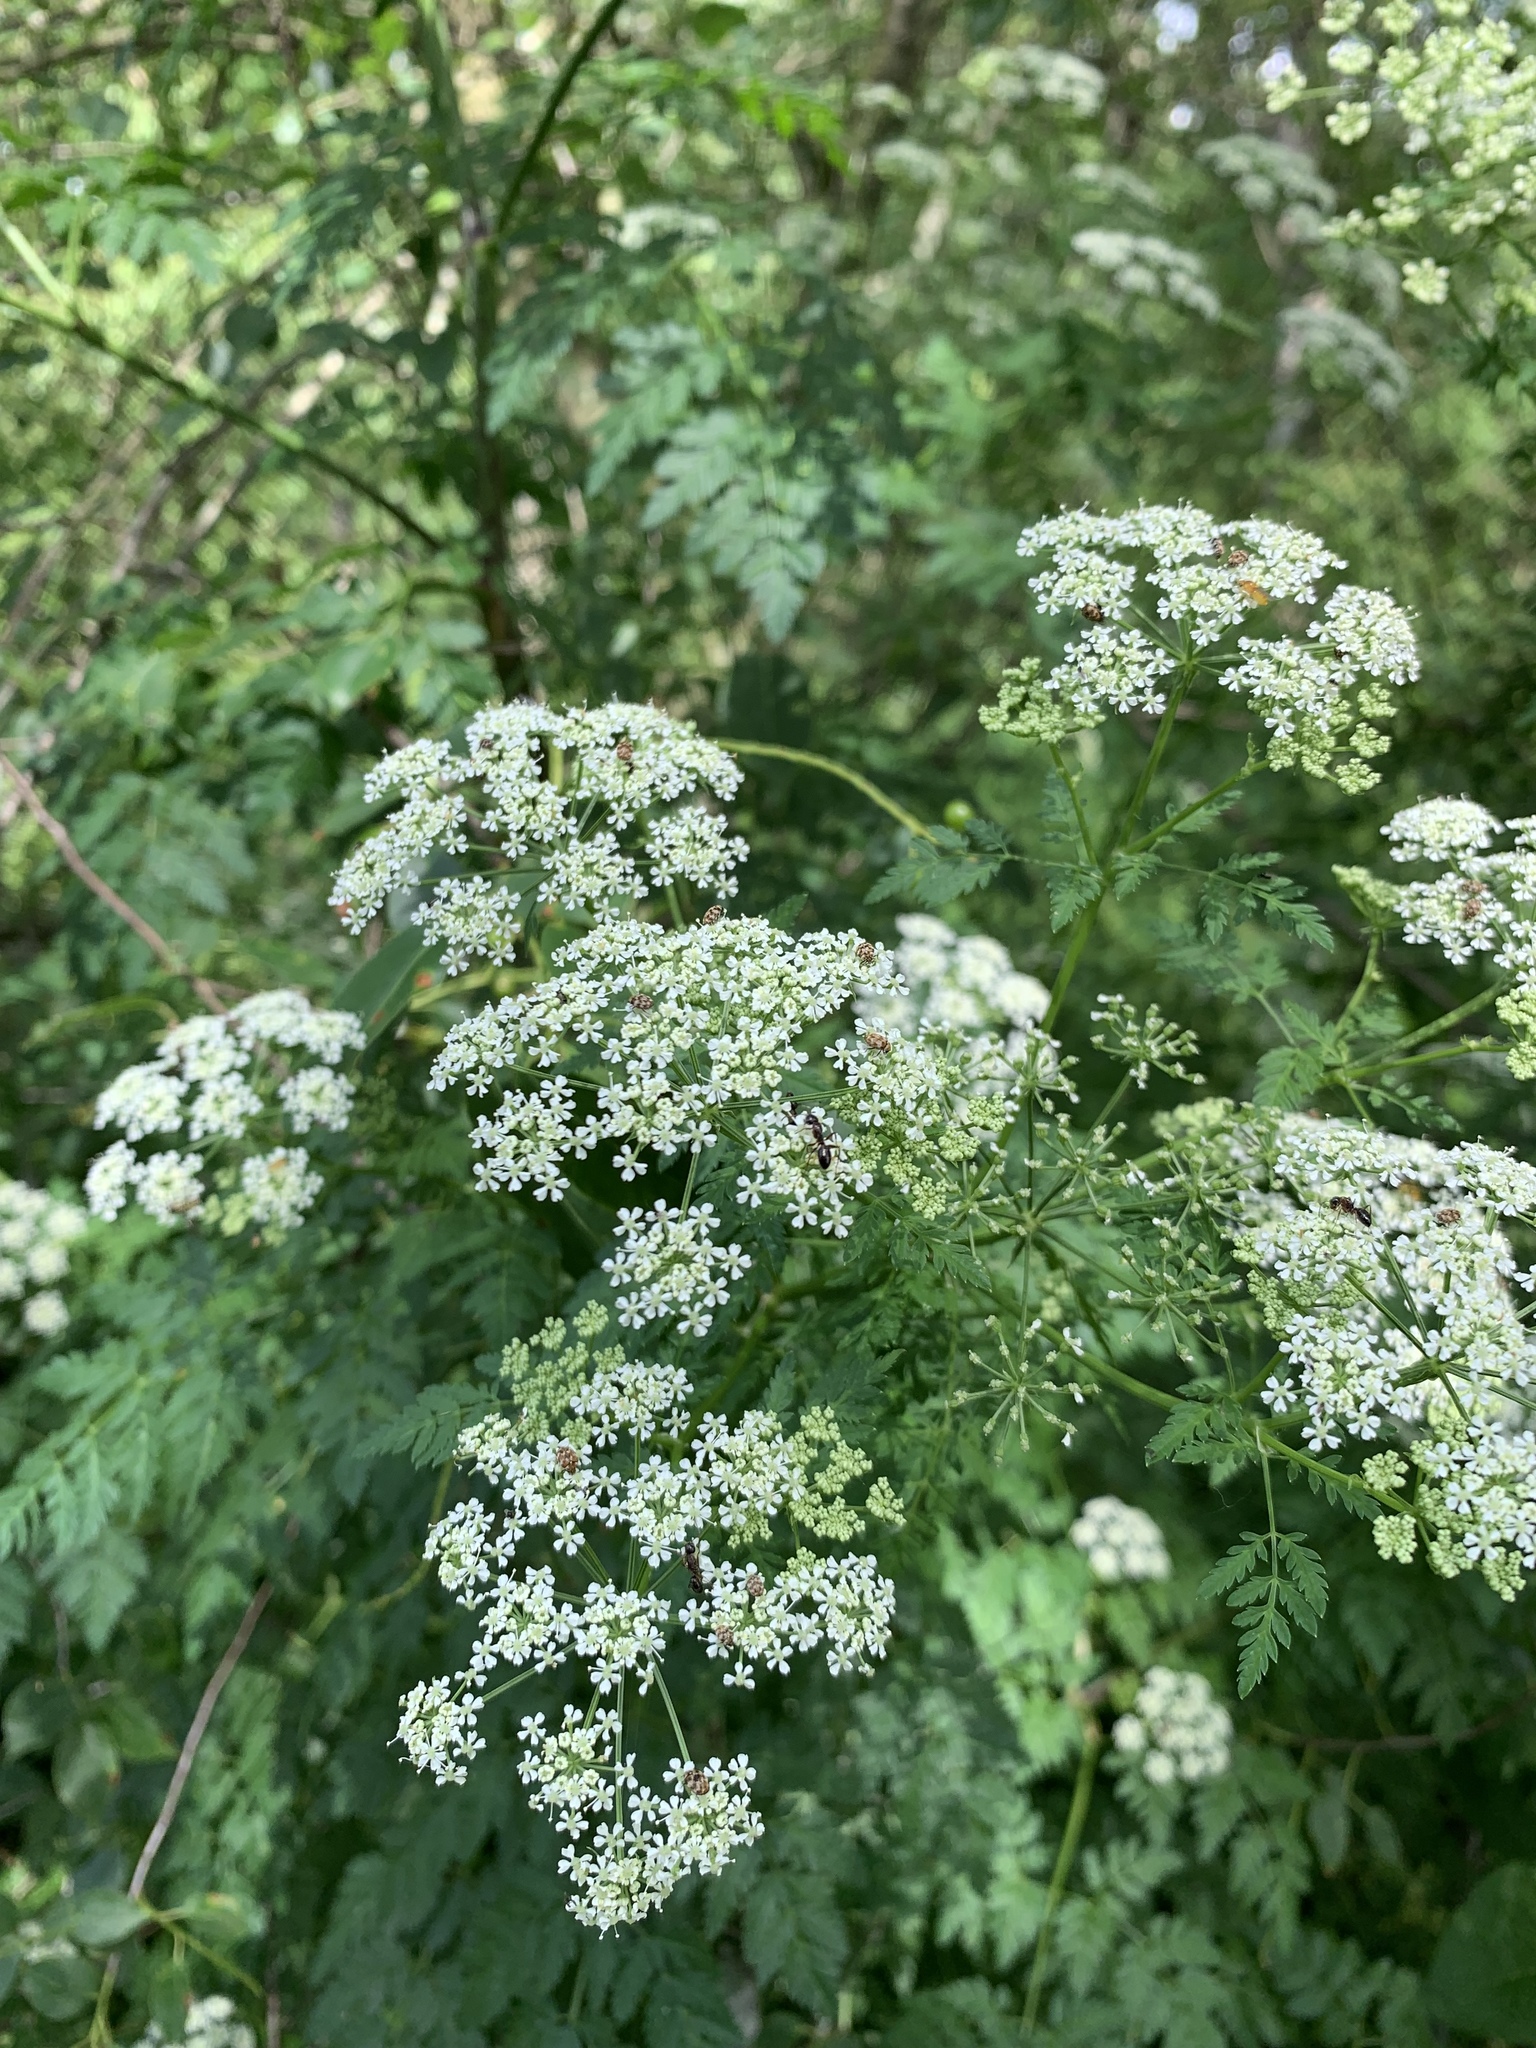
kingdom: Plantae
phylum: Tracheophyta
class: Magnoliopsida
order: Apiales
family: Apiaceae
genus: Conium
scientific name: Conium maculatum
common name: Hemlock
